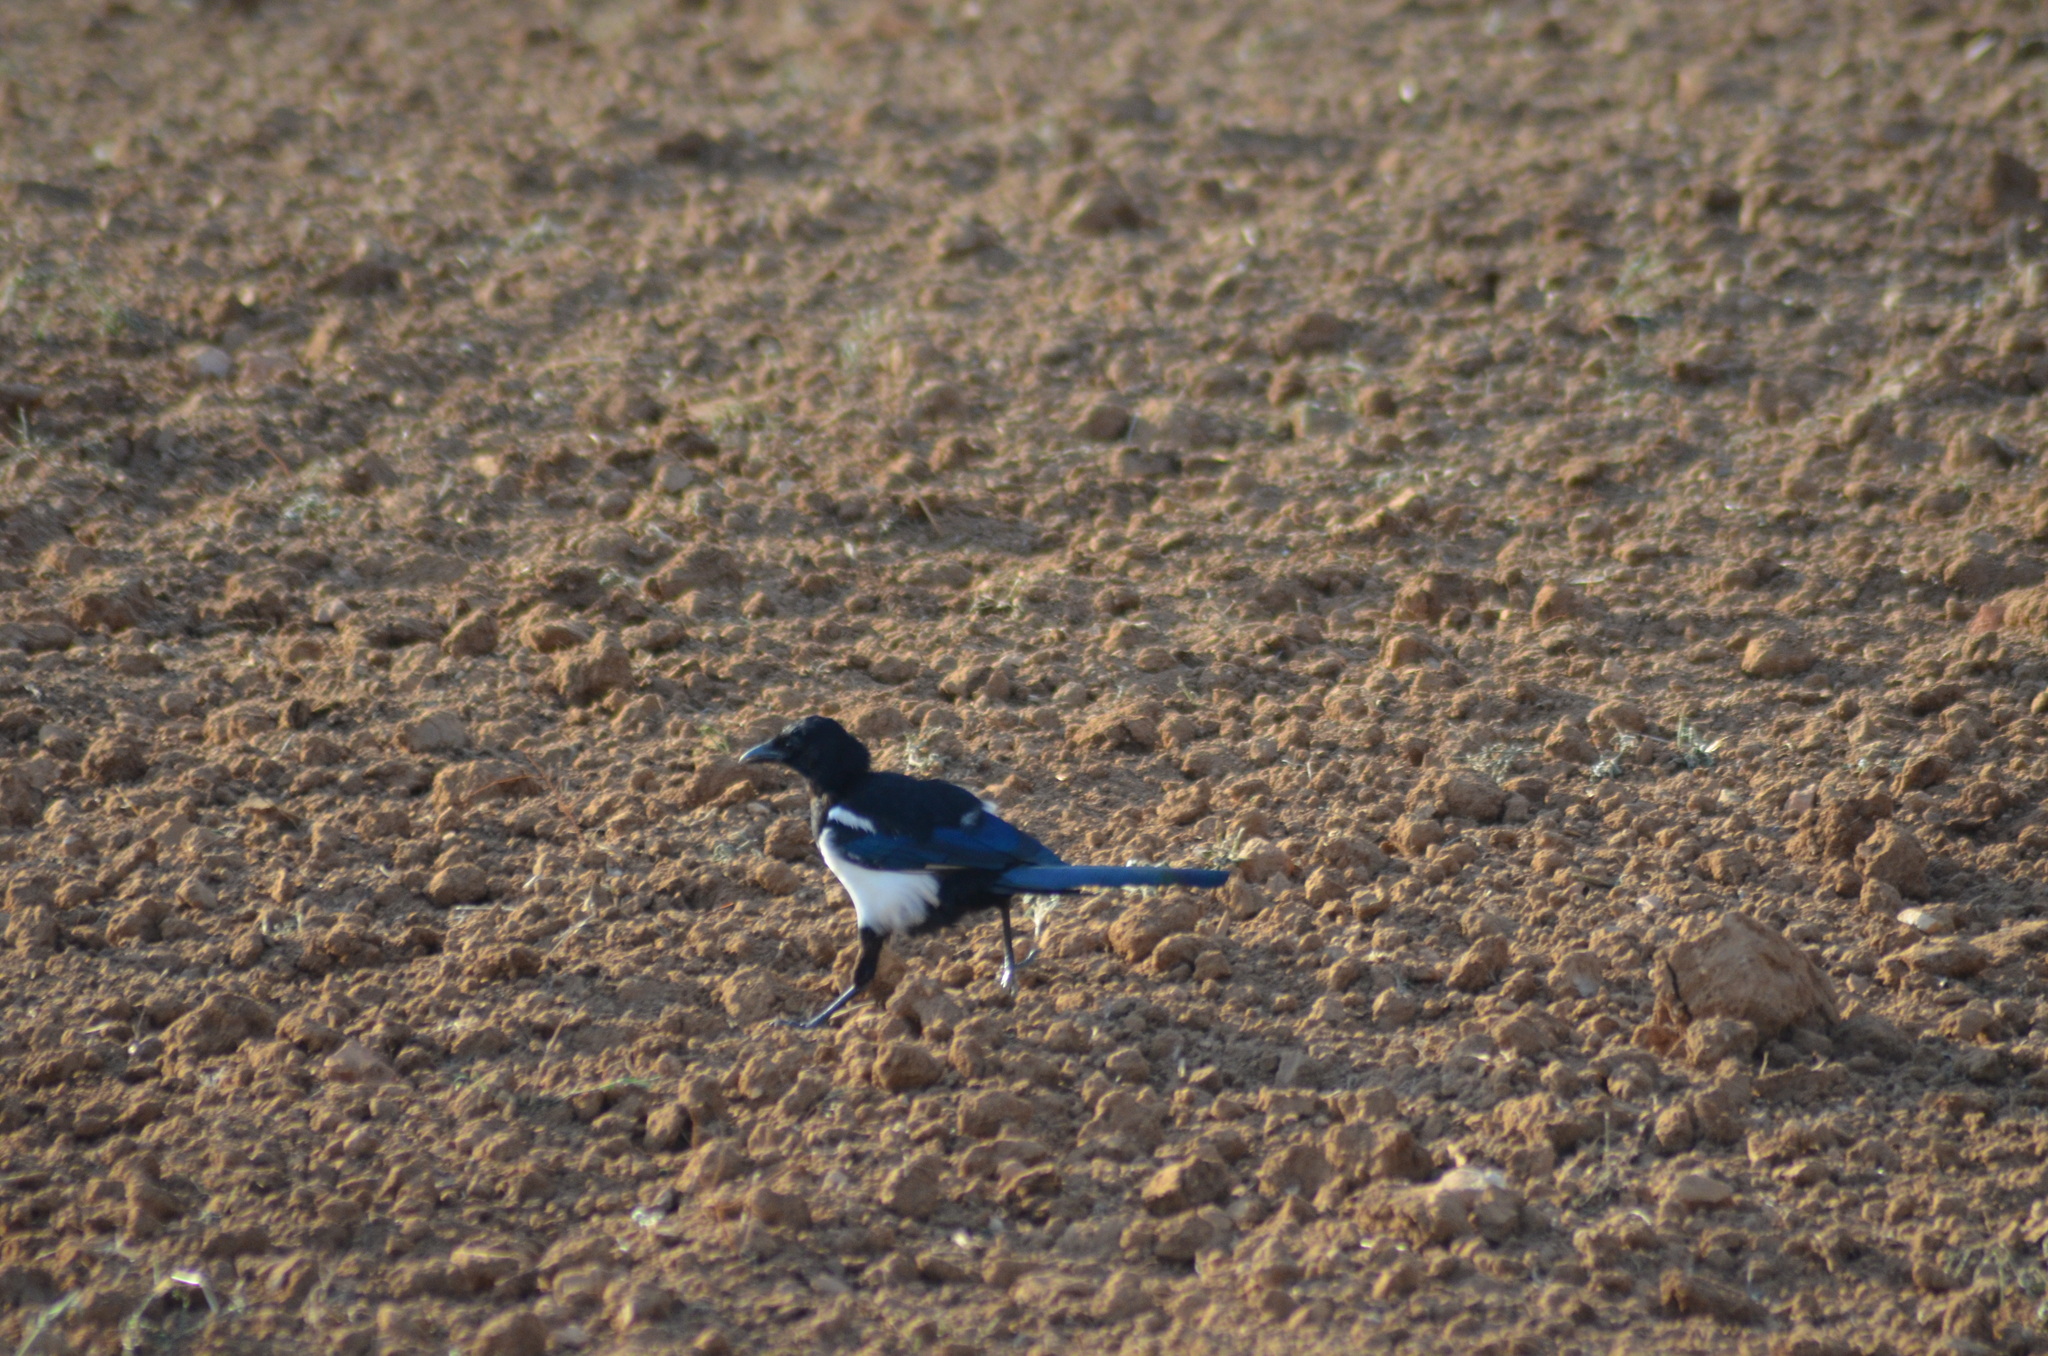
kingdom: Animalia
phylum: Chordata
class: Aves
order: Passeriformes
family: Corvidae
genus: Pica
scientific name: Pica pica
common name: Eurasian magpie
